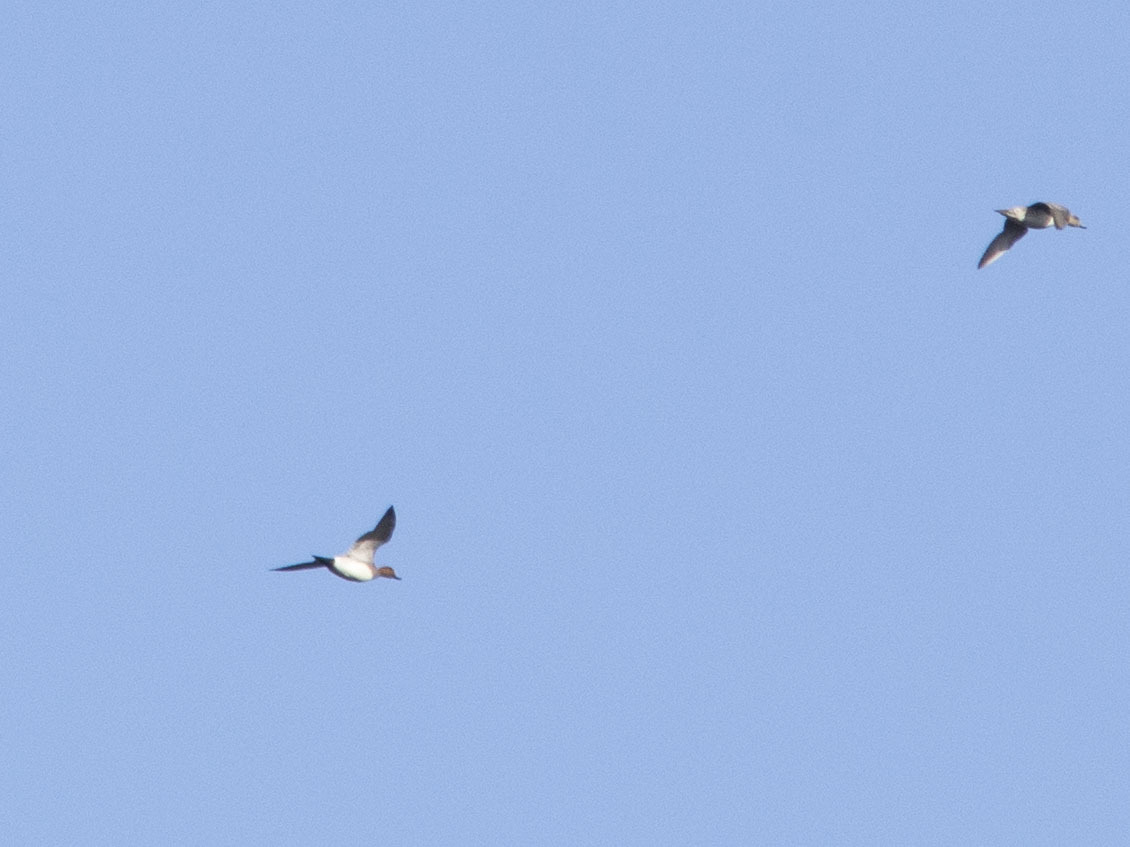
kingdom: Animalia
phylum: Chordata
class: Aves
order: Anseriformes
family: Anatidae
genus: Mareca
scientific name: Mareca penelope
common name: Eurasian wigeon
